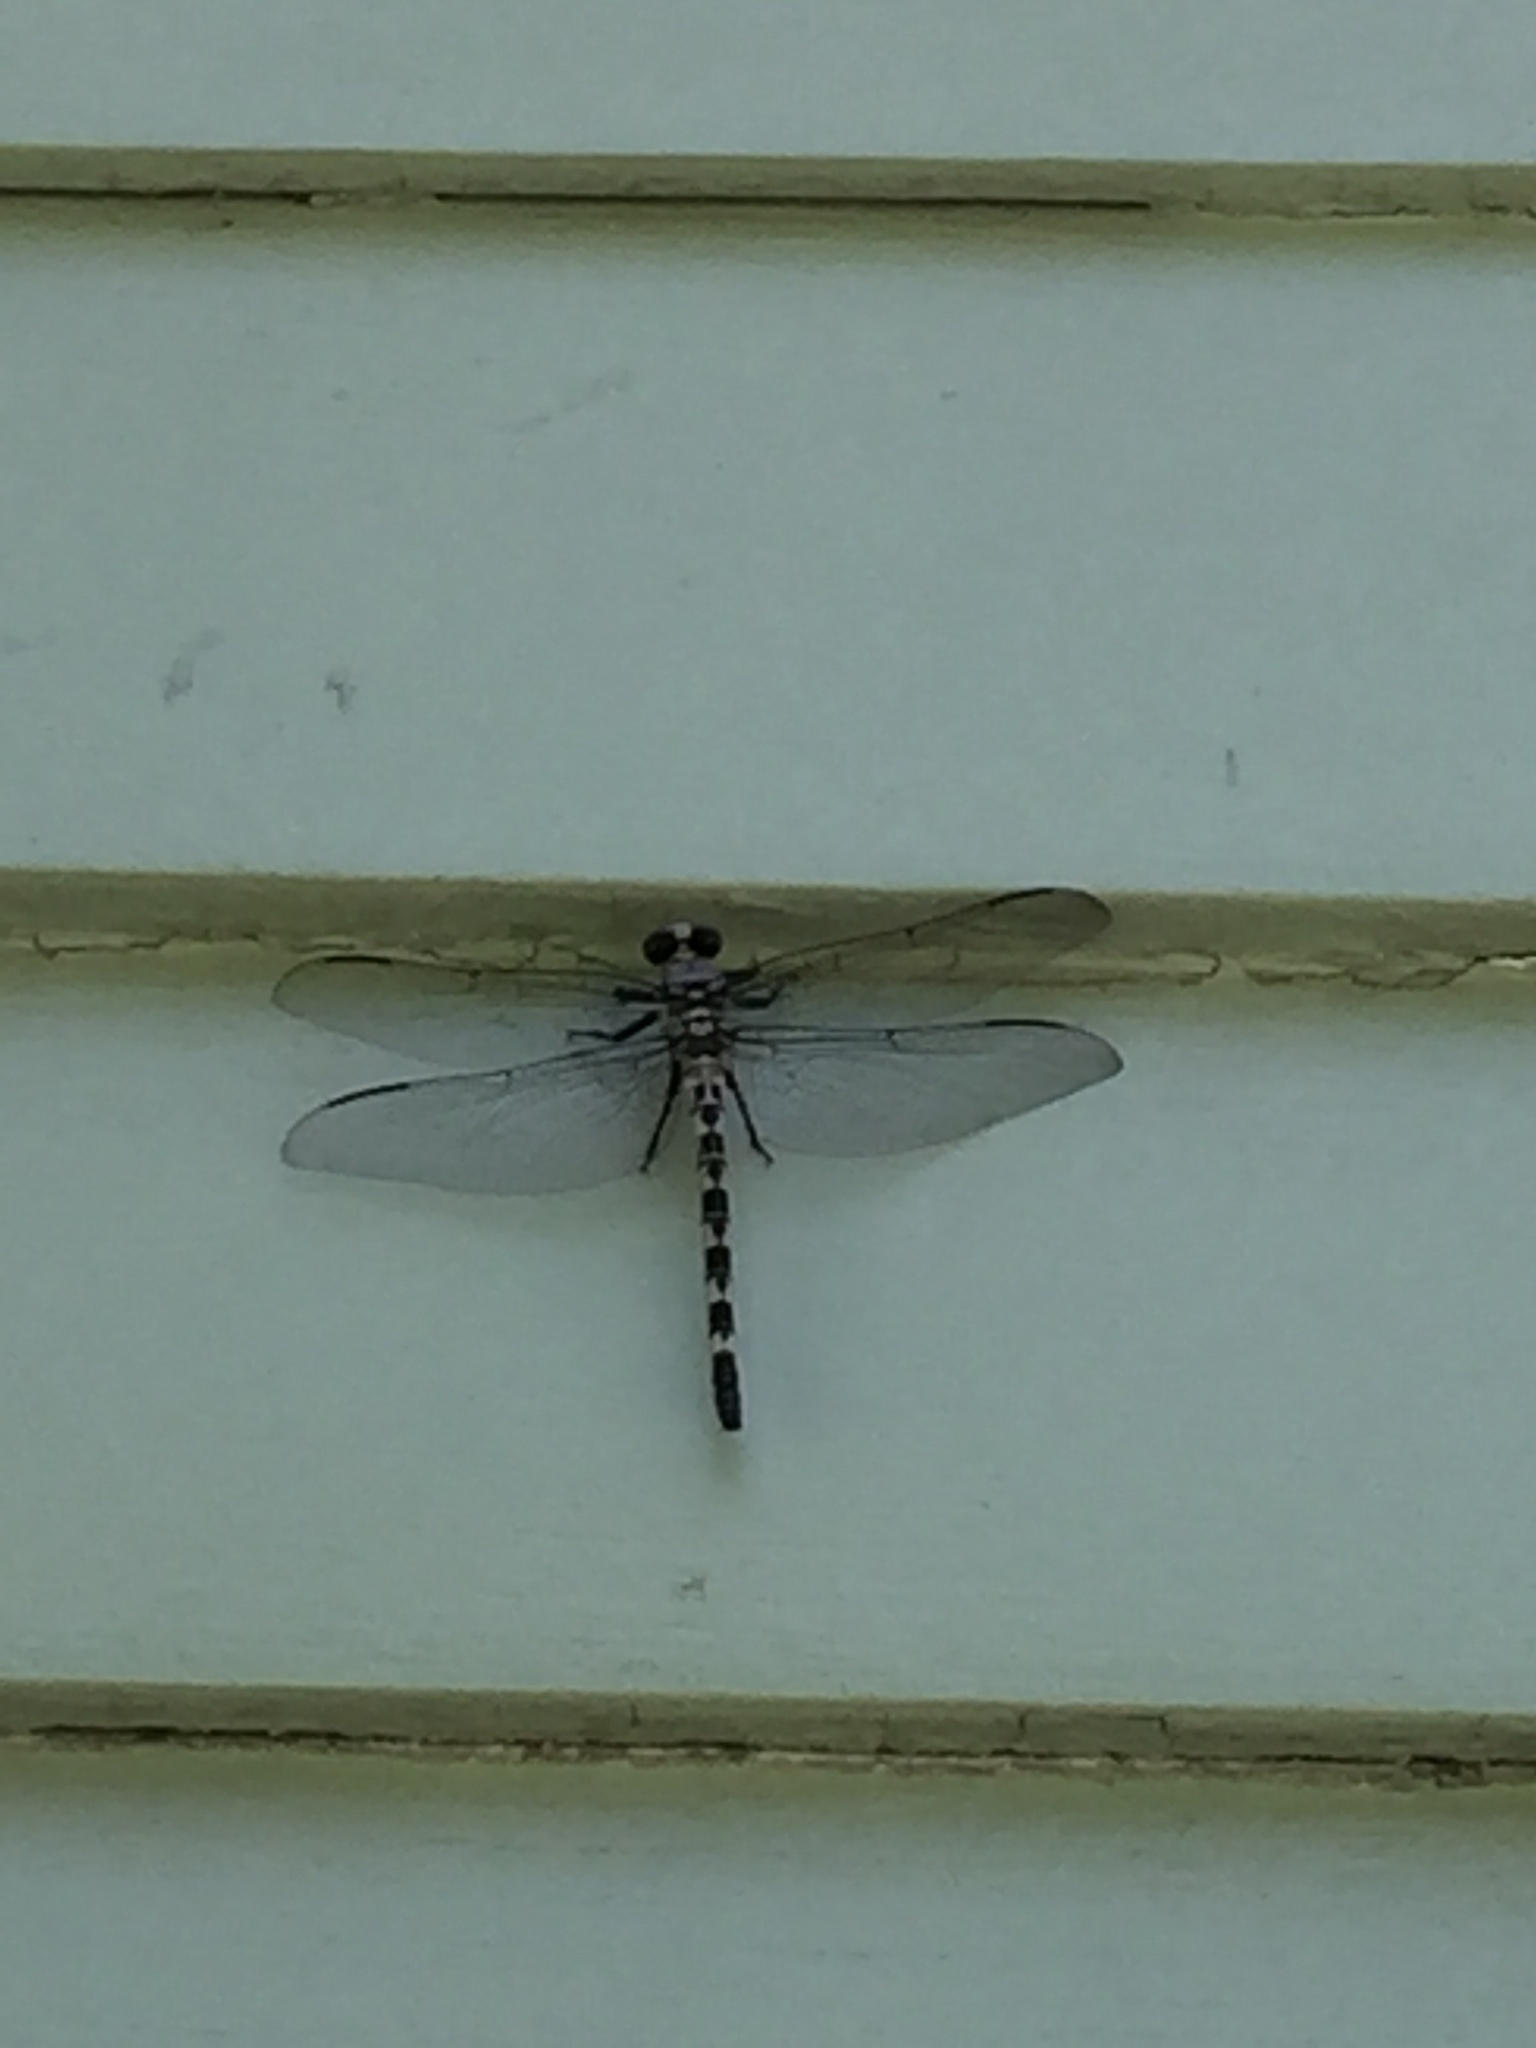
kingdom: Animalia
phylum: Arthropoda
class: Insecta
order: Odonata
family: Petaluridae
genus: Tachopteryx
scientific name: Tachopteryx thoreyi
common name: Gray petaltail
